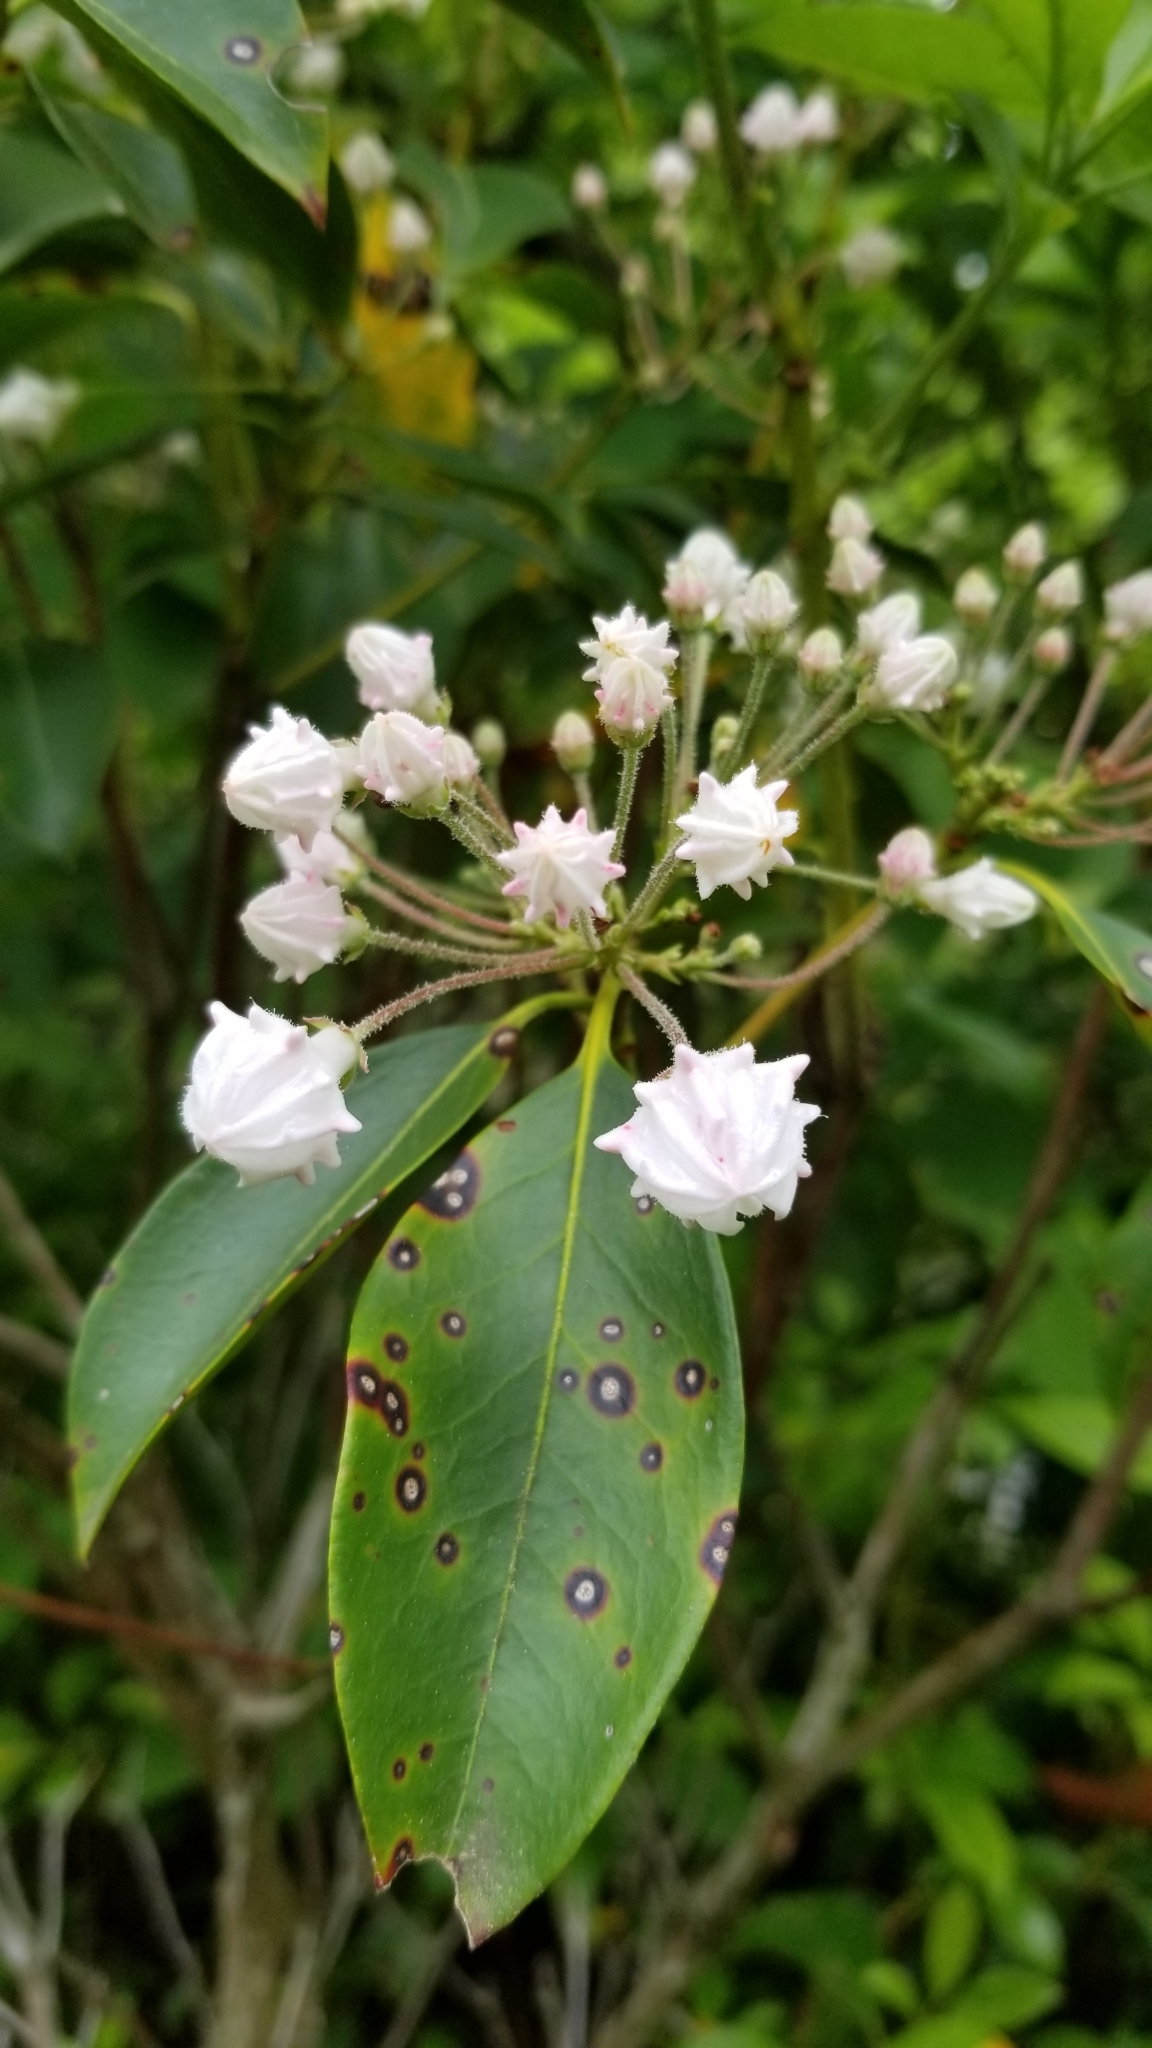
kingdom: Plantae
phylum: Tracheophyta
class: Magnoliopsida
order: Ericales
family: Ericaceae
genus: Kalmia
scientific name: Kalmia latifolia
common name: Mountain-laurel
